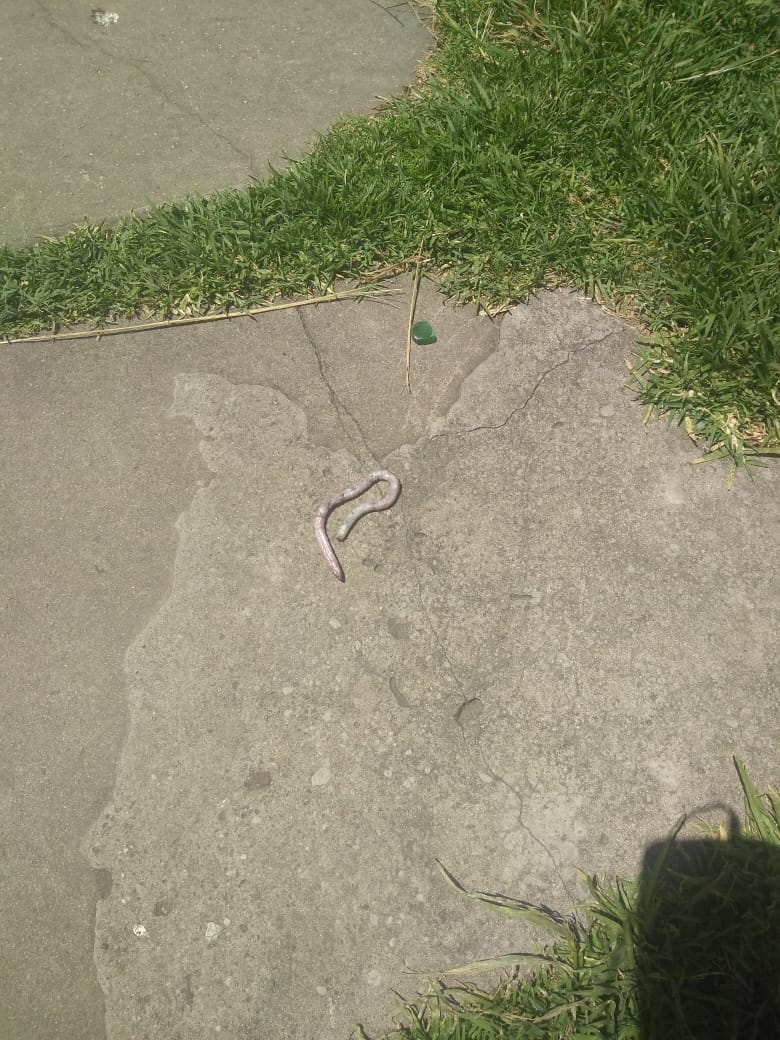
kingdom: Animalia
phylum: Chordata
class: Squamata
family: Amphisbaenidae
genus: Amphisbaena
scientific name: Amphisbaena darwinii
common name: Darwin's ringed worm lizard
